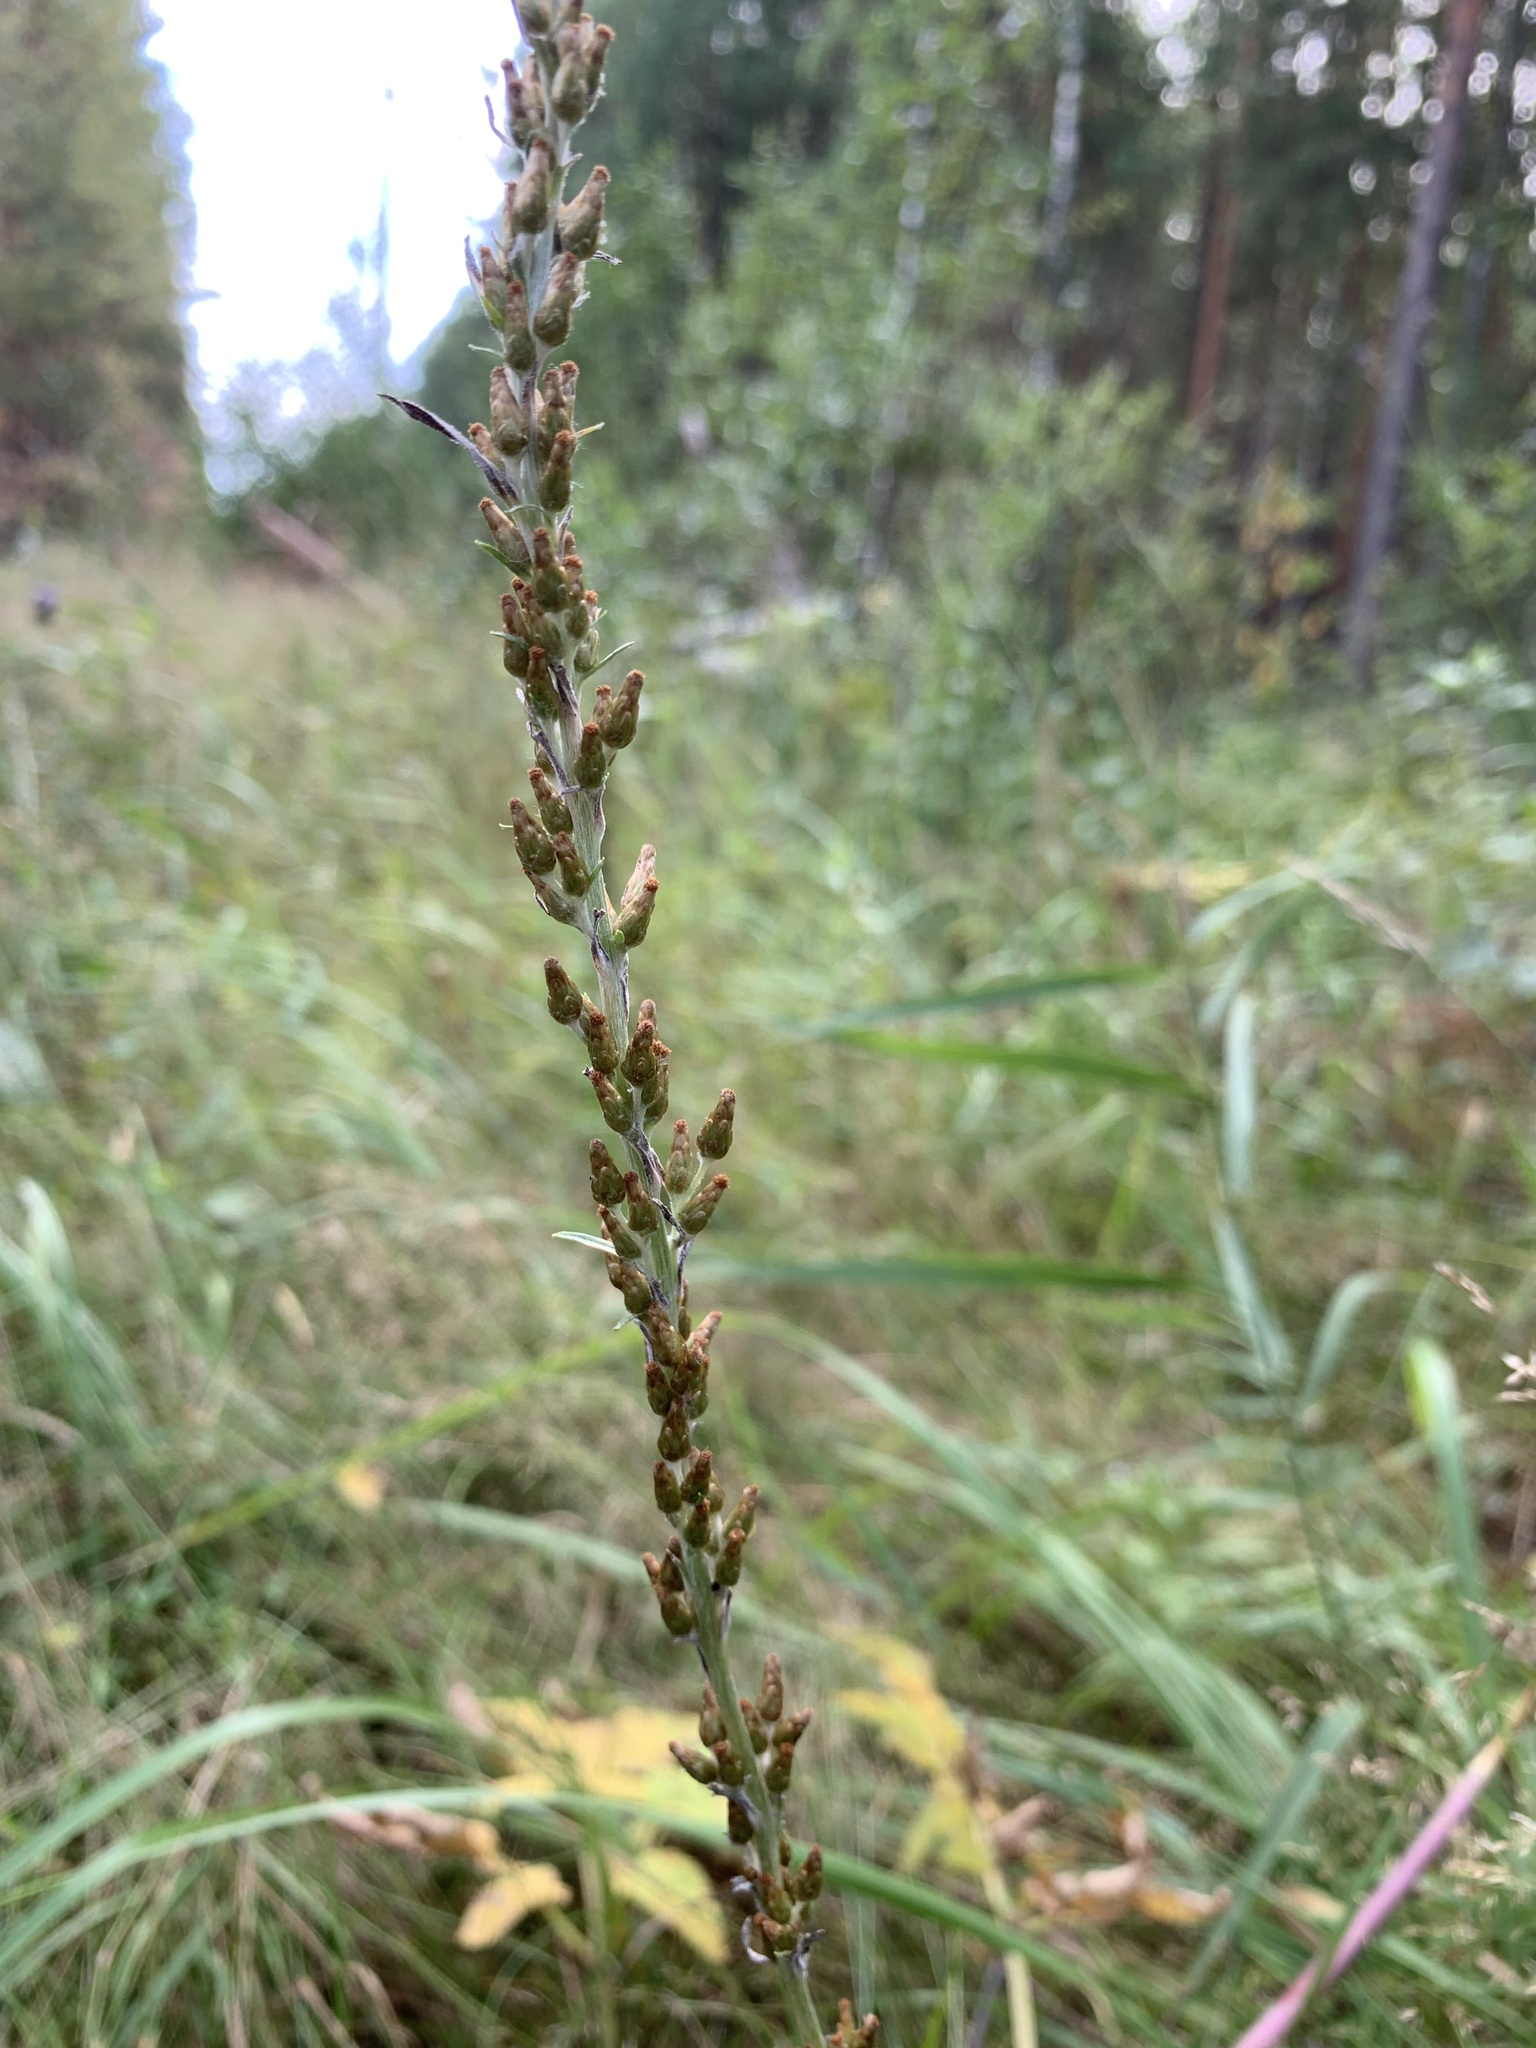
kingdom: Plantae
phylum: Tracheophyta
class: Magnoliopsida
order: Asterales
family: Asteraceae
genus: Omalotheca
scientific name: Omalotheca sylvatica
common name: Heath cudweed
